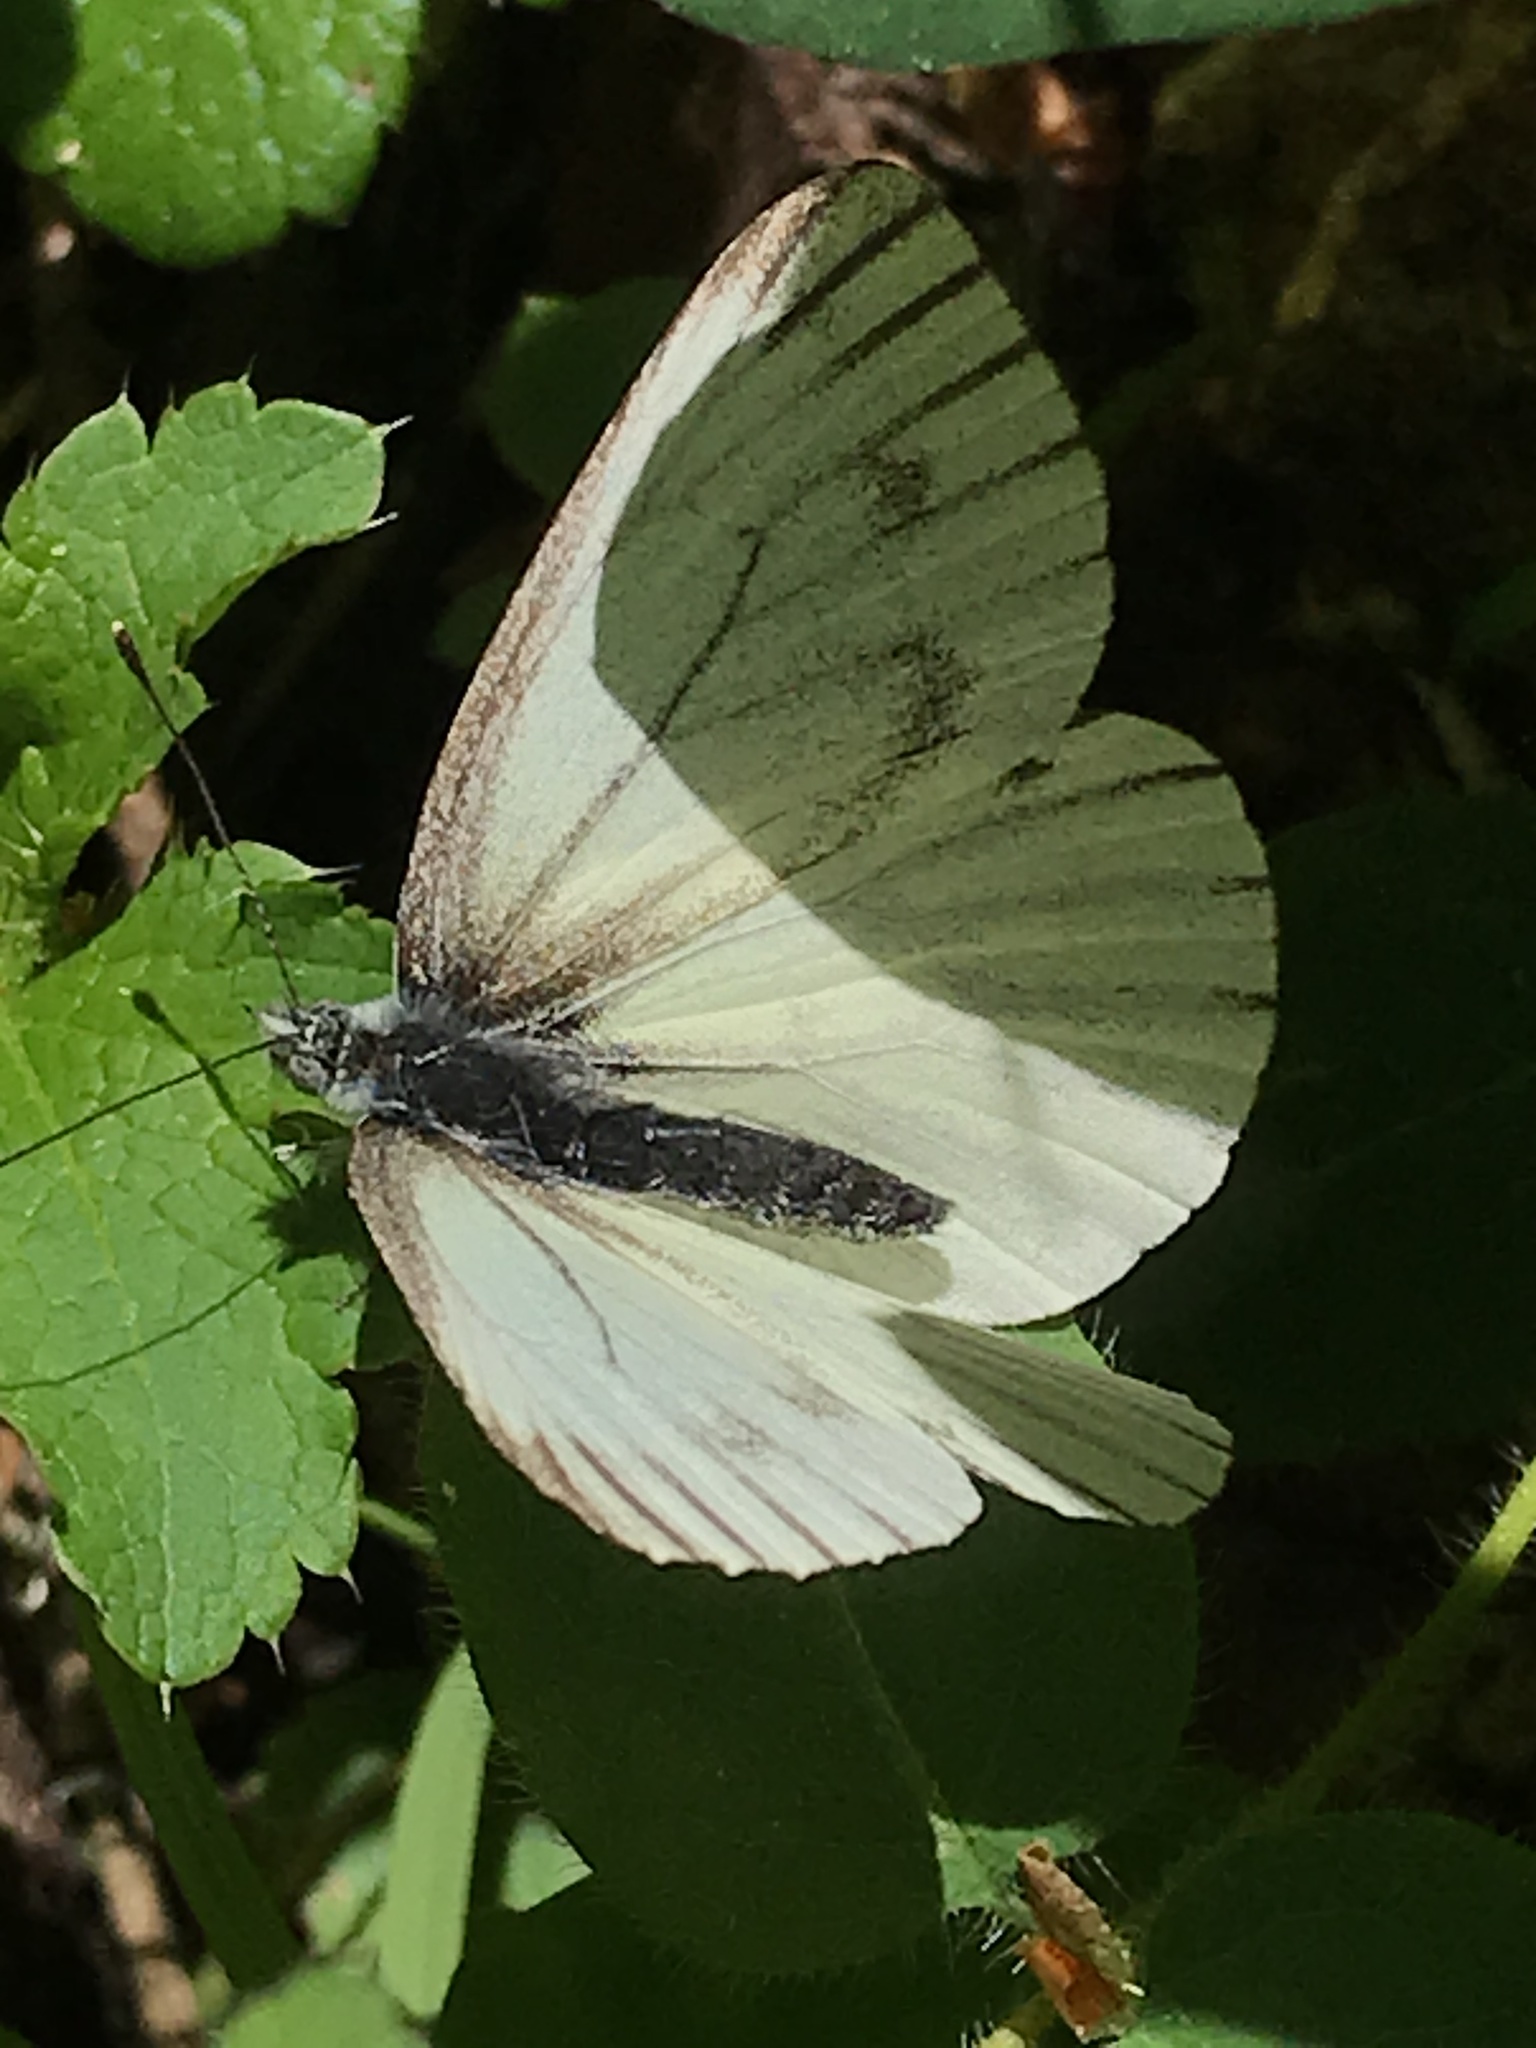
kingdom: Animalia
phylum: Arthropoda
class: Insecta
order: Lepidoptera
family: Pieridae
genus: Pieris
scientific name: Pieris marginalis
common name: Margined white
